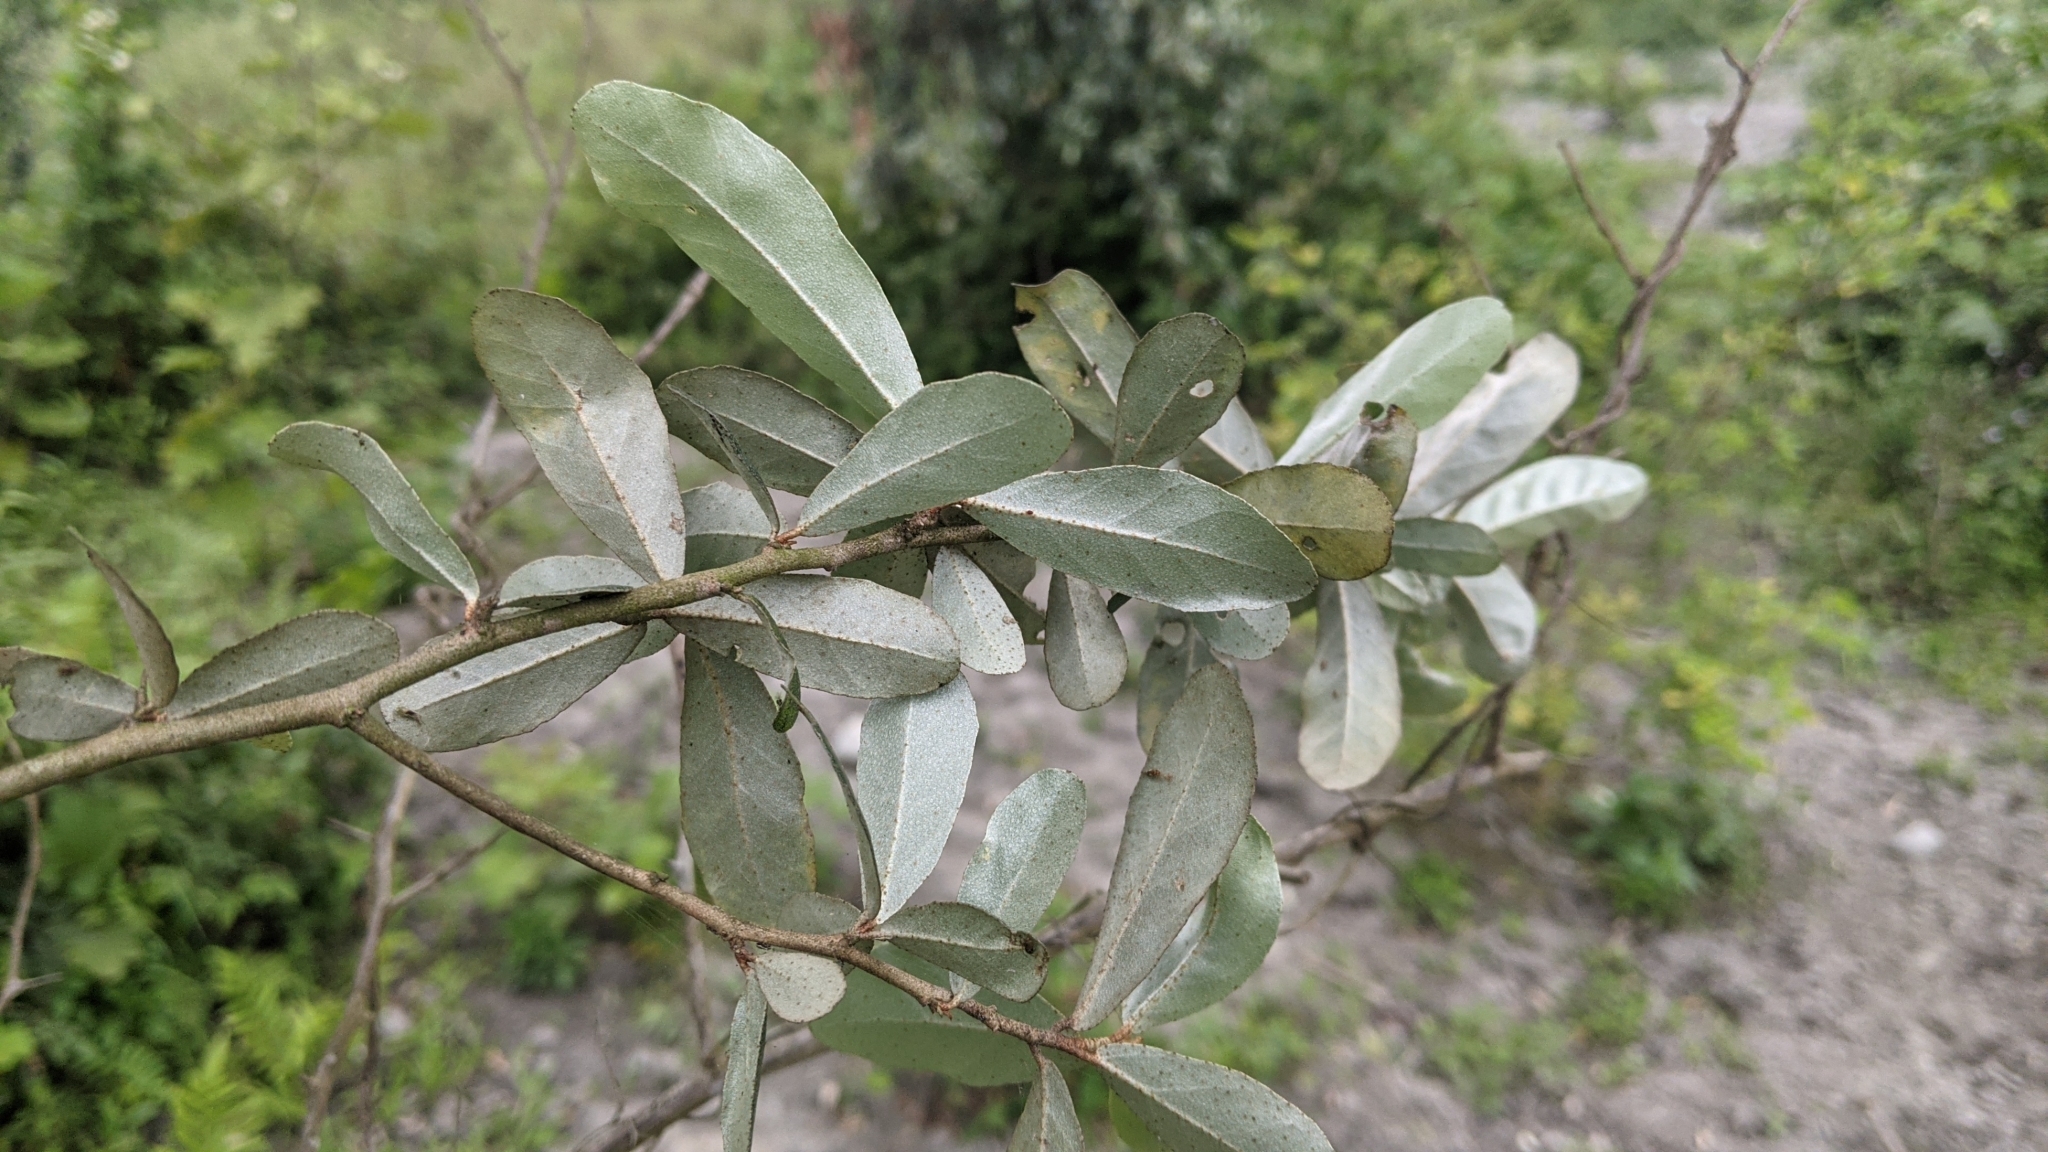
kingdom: Plantae
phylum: Tracheophyta
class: Magnoliopsida
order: Rosales
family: Elaeagnaceae
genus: Elaeagnus
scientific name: Elaeagnus oldhamii
